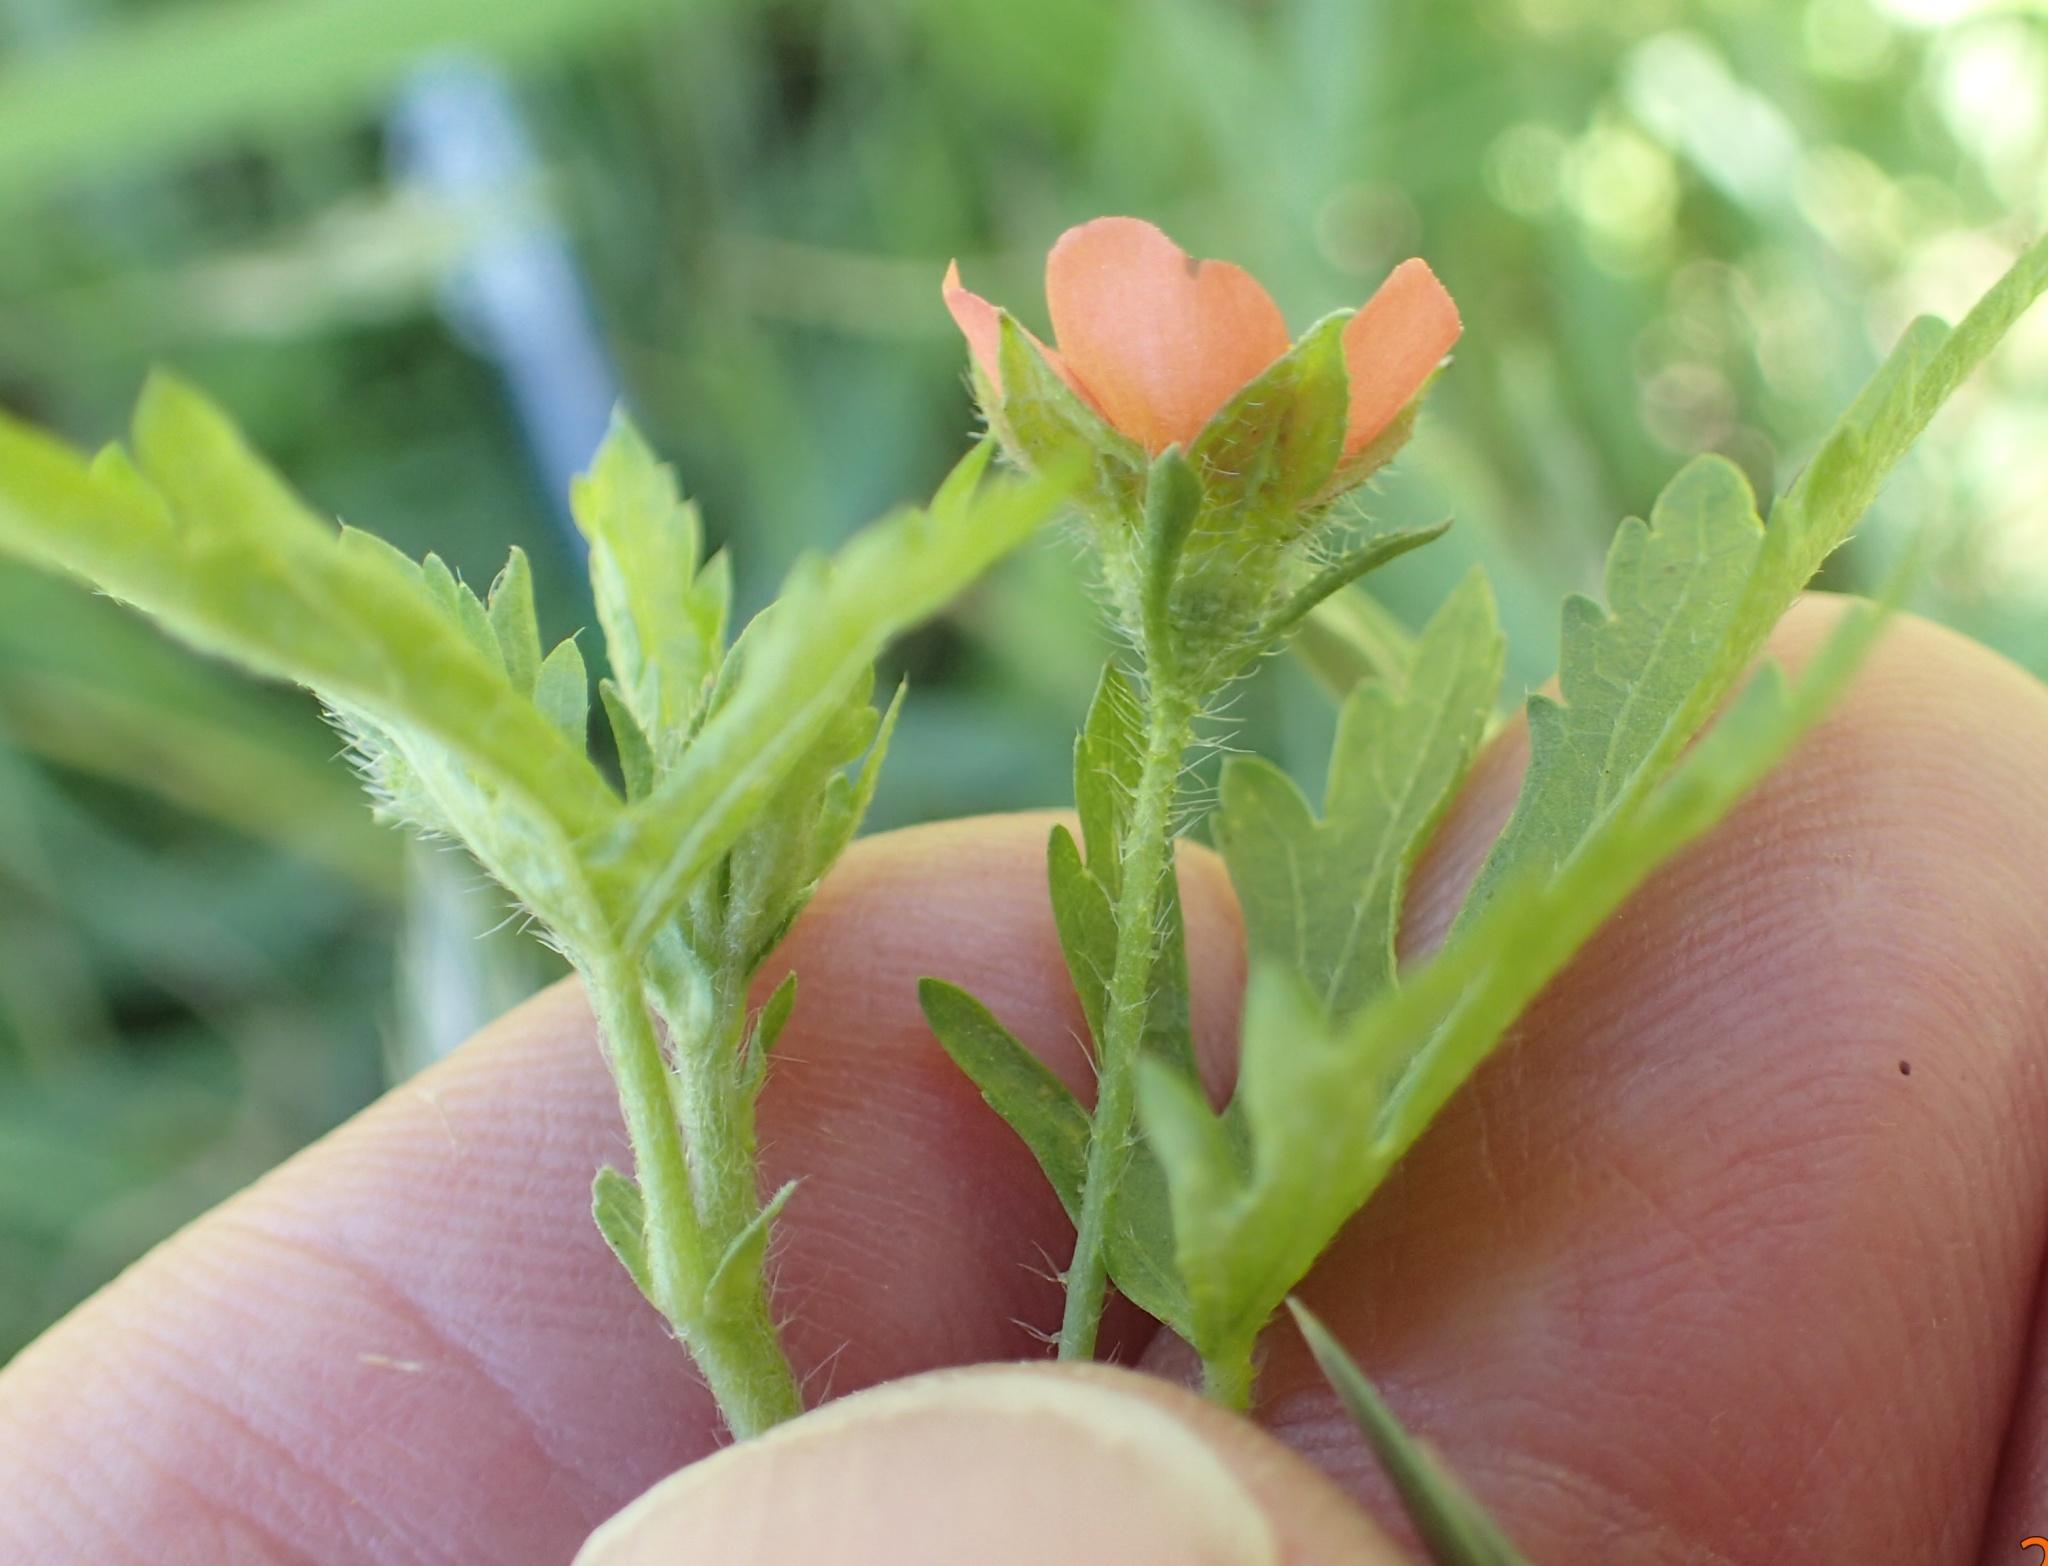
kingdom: Plantae
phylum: Tracheophyta
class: Magnoliopsida
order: Malvales
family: Malvaceae
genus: Modiola
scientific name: Modiola caroliniana
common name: Carolina bristlemallow
